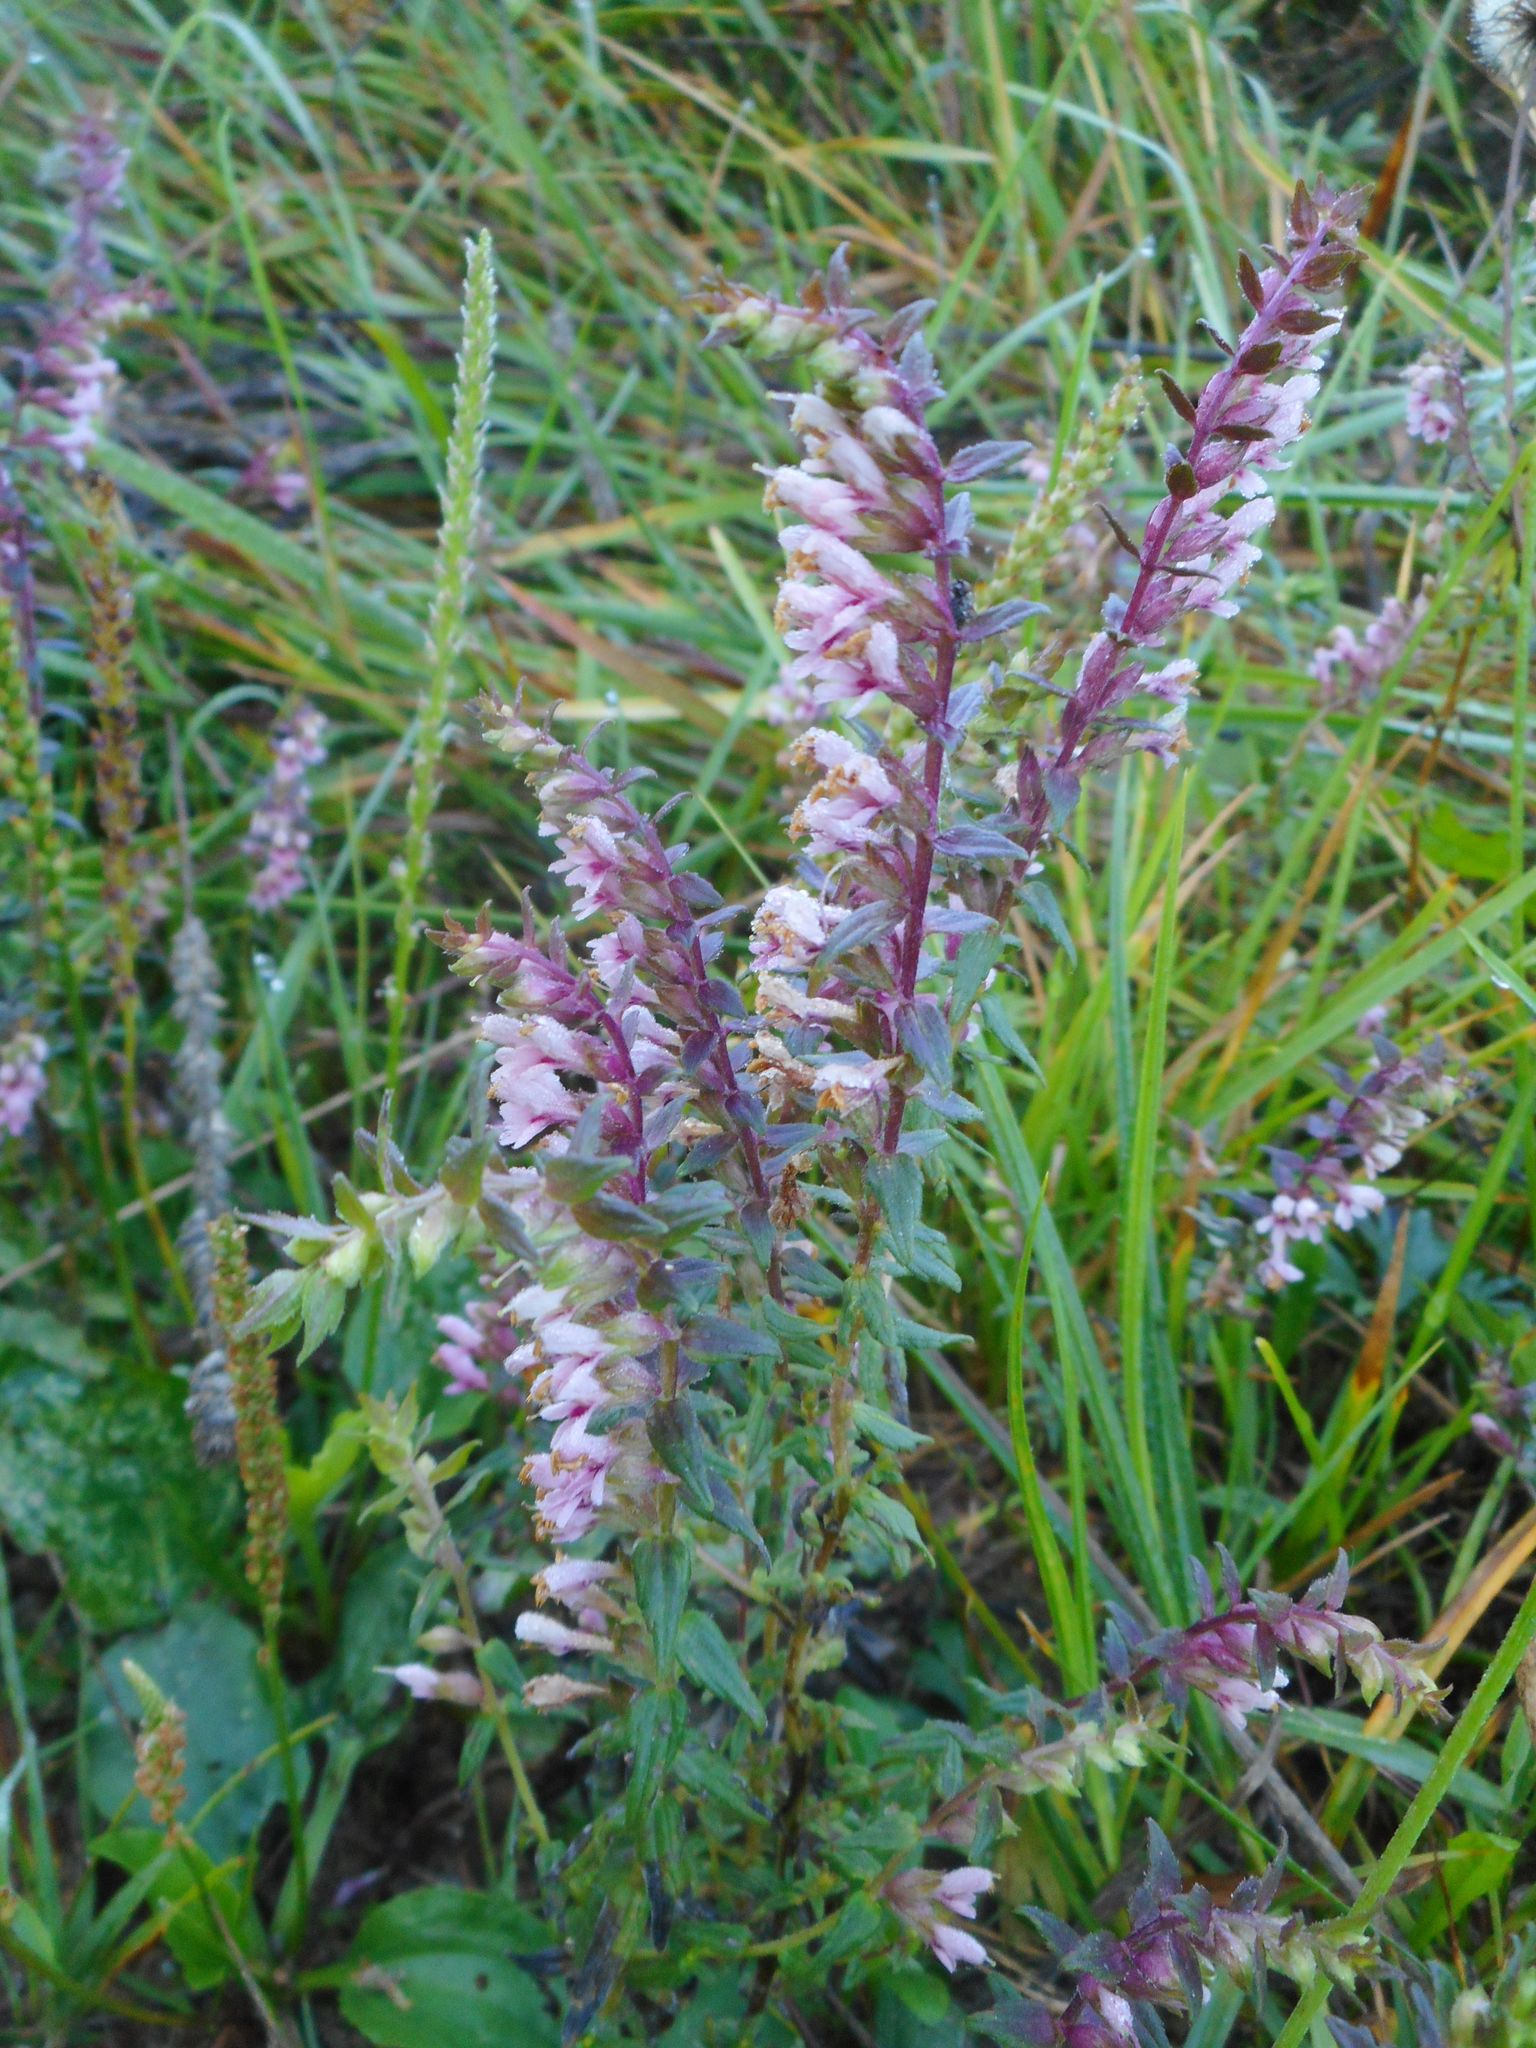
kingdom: Plantae
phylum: Tracheophyta
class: Magnoliopsida
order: Lamiales
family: Orobanchaceae
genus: Odontites
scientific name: Odontites vulgaris
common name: Broomrape
